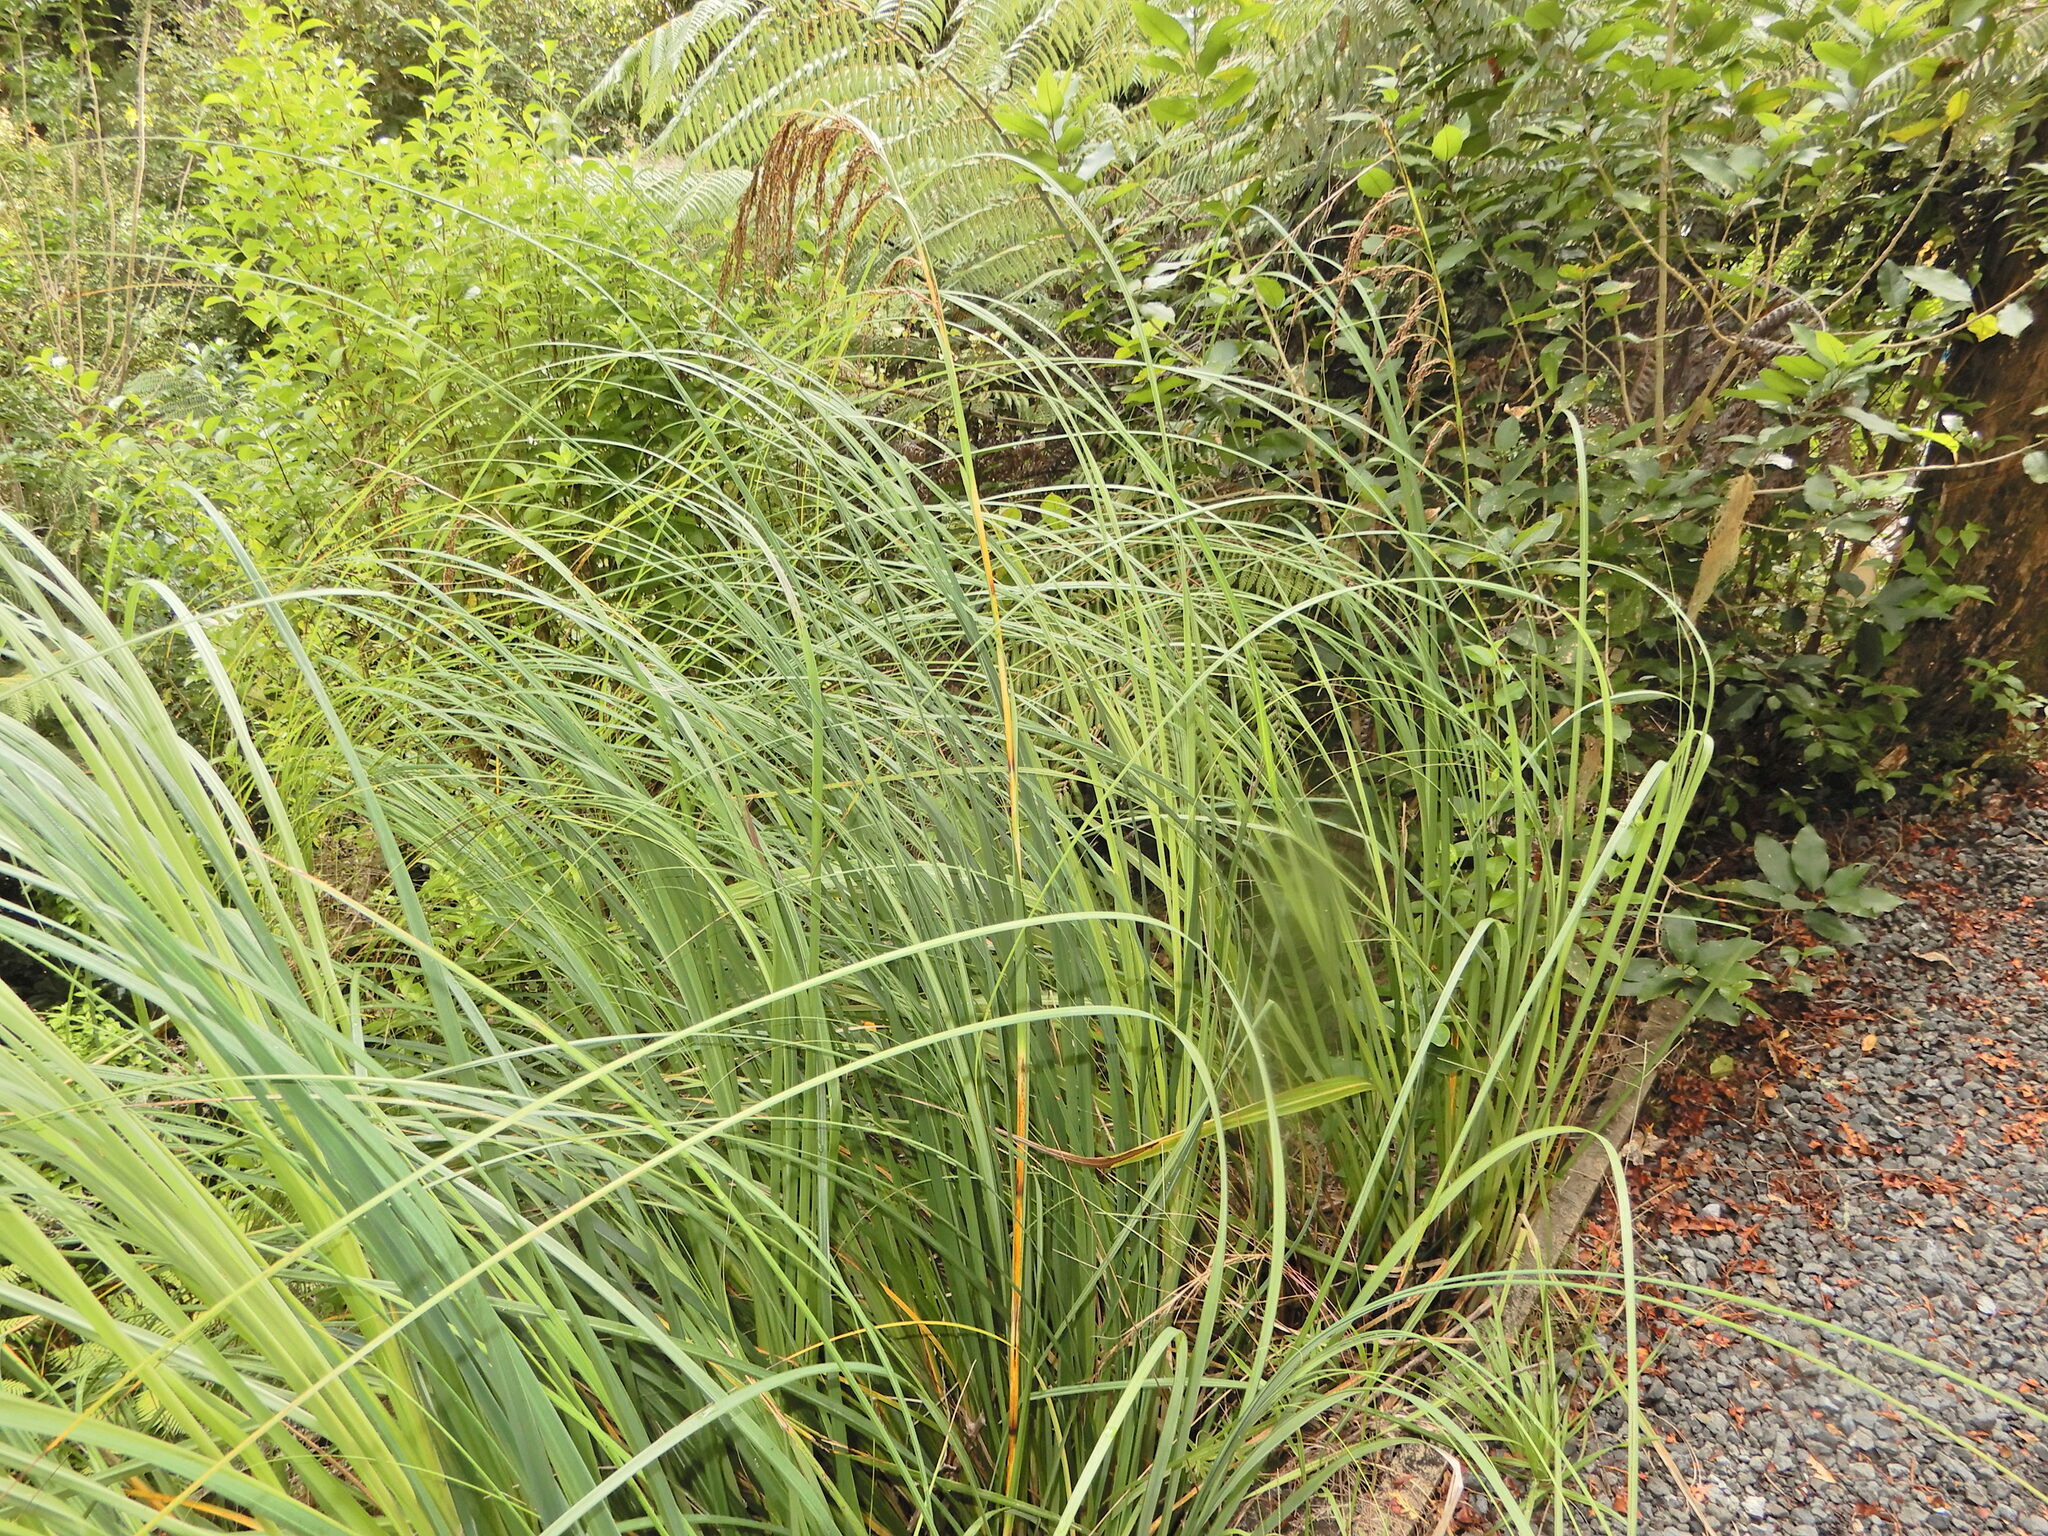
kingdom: Plantae
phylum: Tracheophyta
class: Liliopsida
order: Poales
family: Cyperaceae
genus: Gahnia
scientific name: Gahnia setifolia
